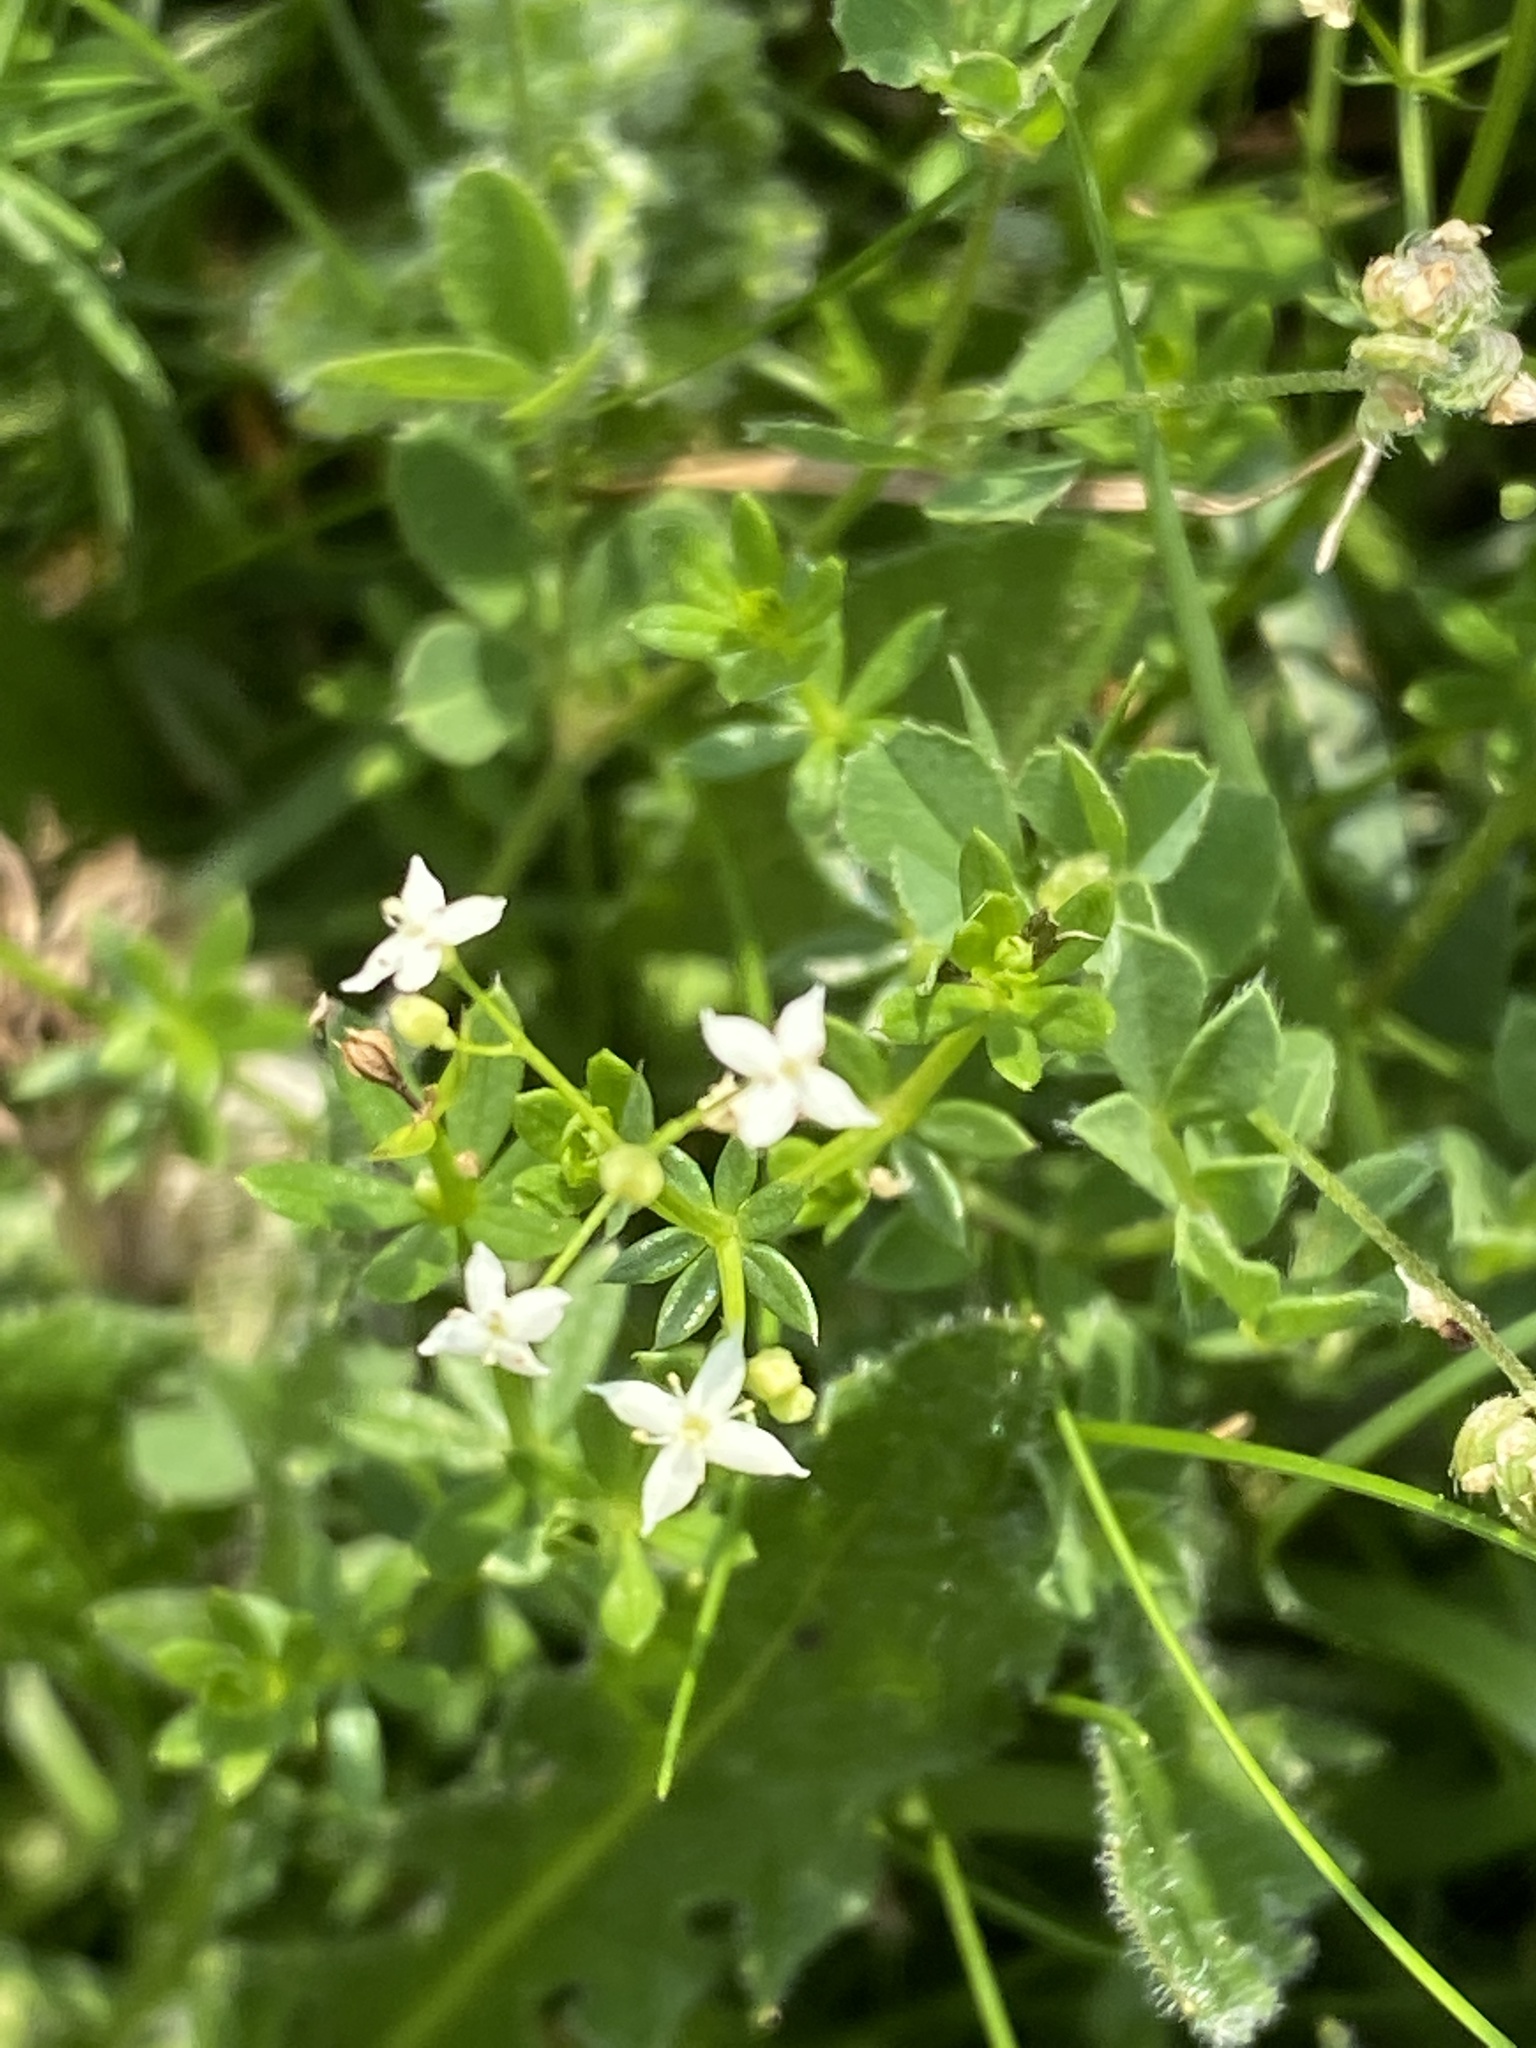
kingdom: Plantae
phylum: Tracheophyta
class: Magnoliopsida
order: Gentianales
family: Rubiaceae
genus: Galium
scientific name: Galium saxatile
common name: Heath bedstraw
